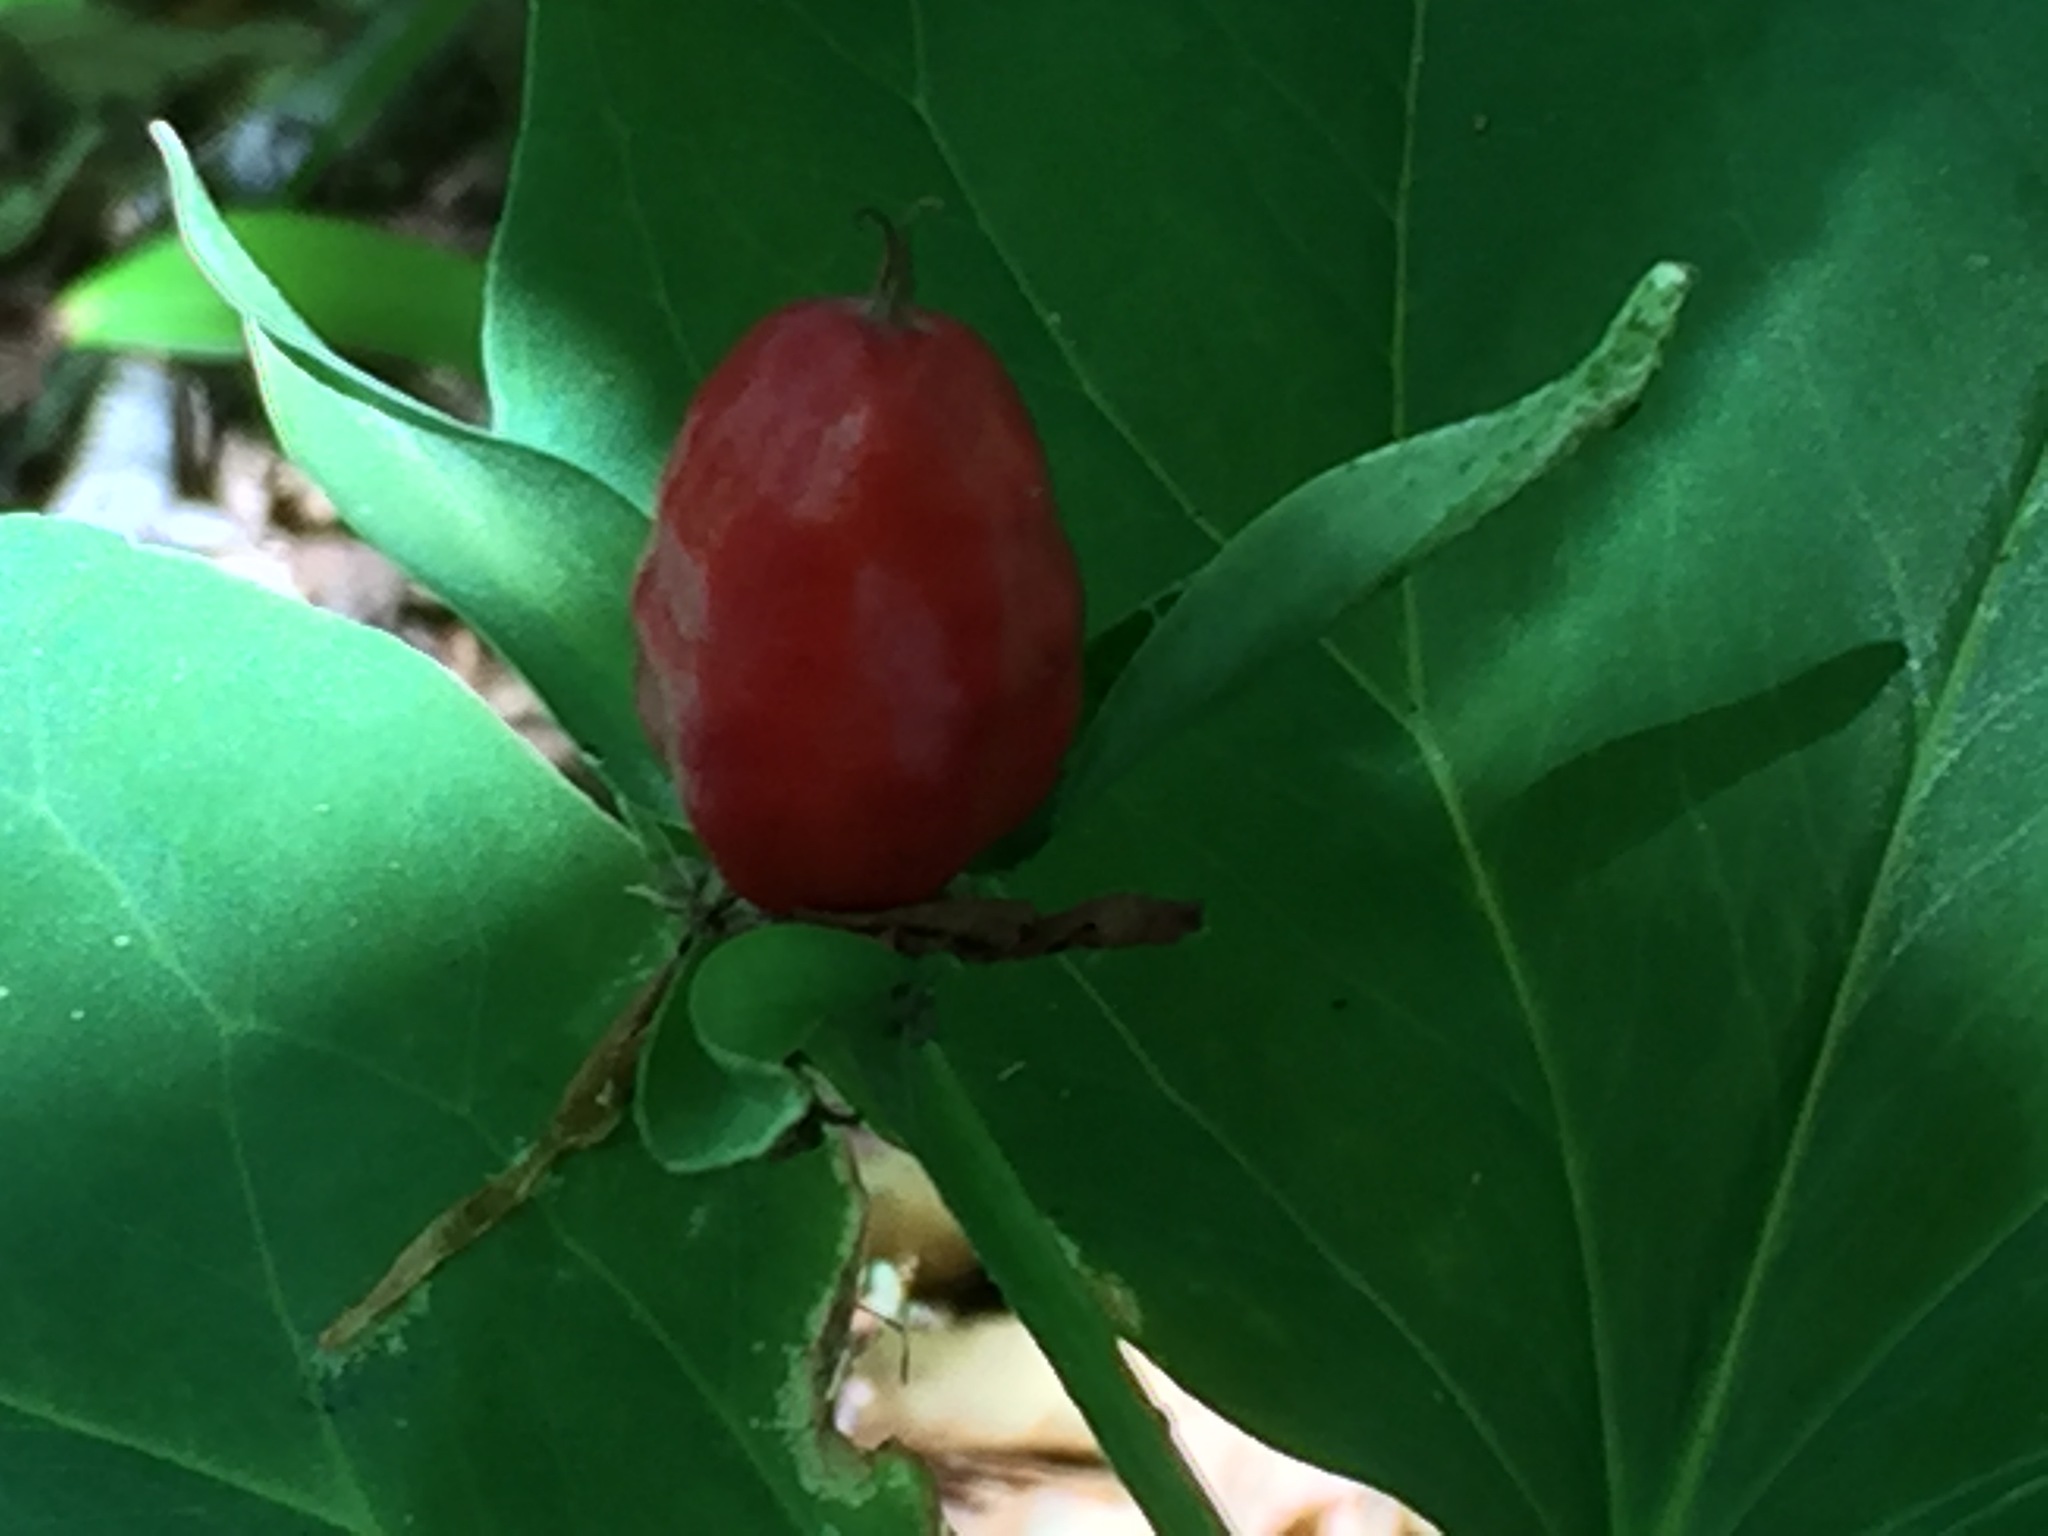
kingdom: Plantae
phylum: Tracheophyta
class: Liliopsida
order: Liliales
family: Melanthiaceae
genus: Trillium
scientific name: Trillium undulatum
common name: Paint trillium
